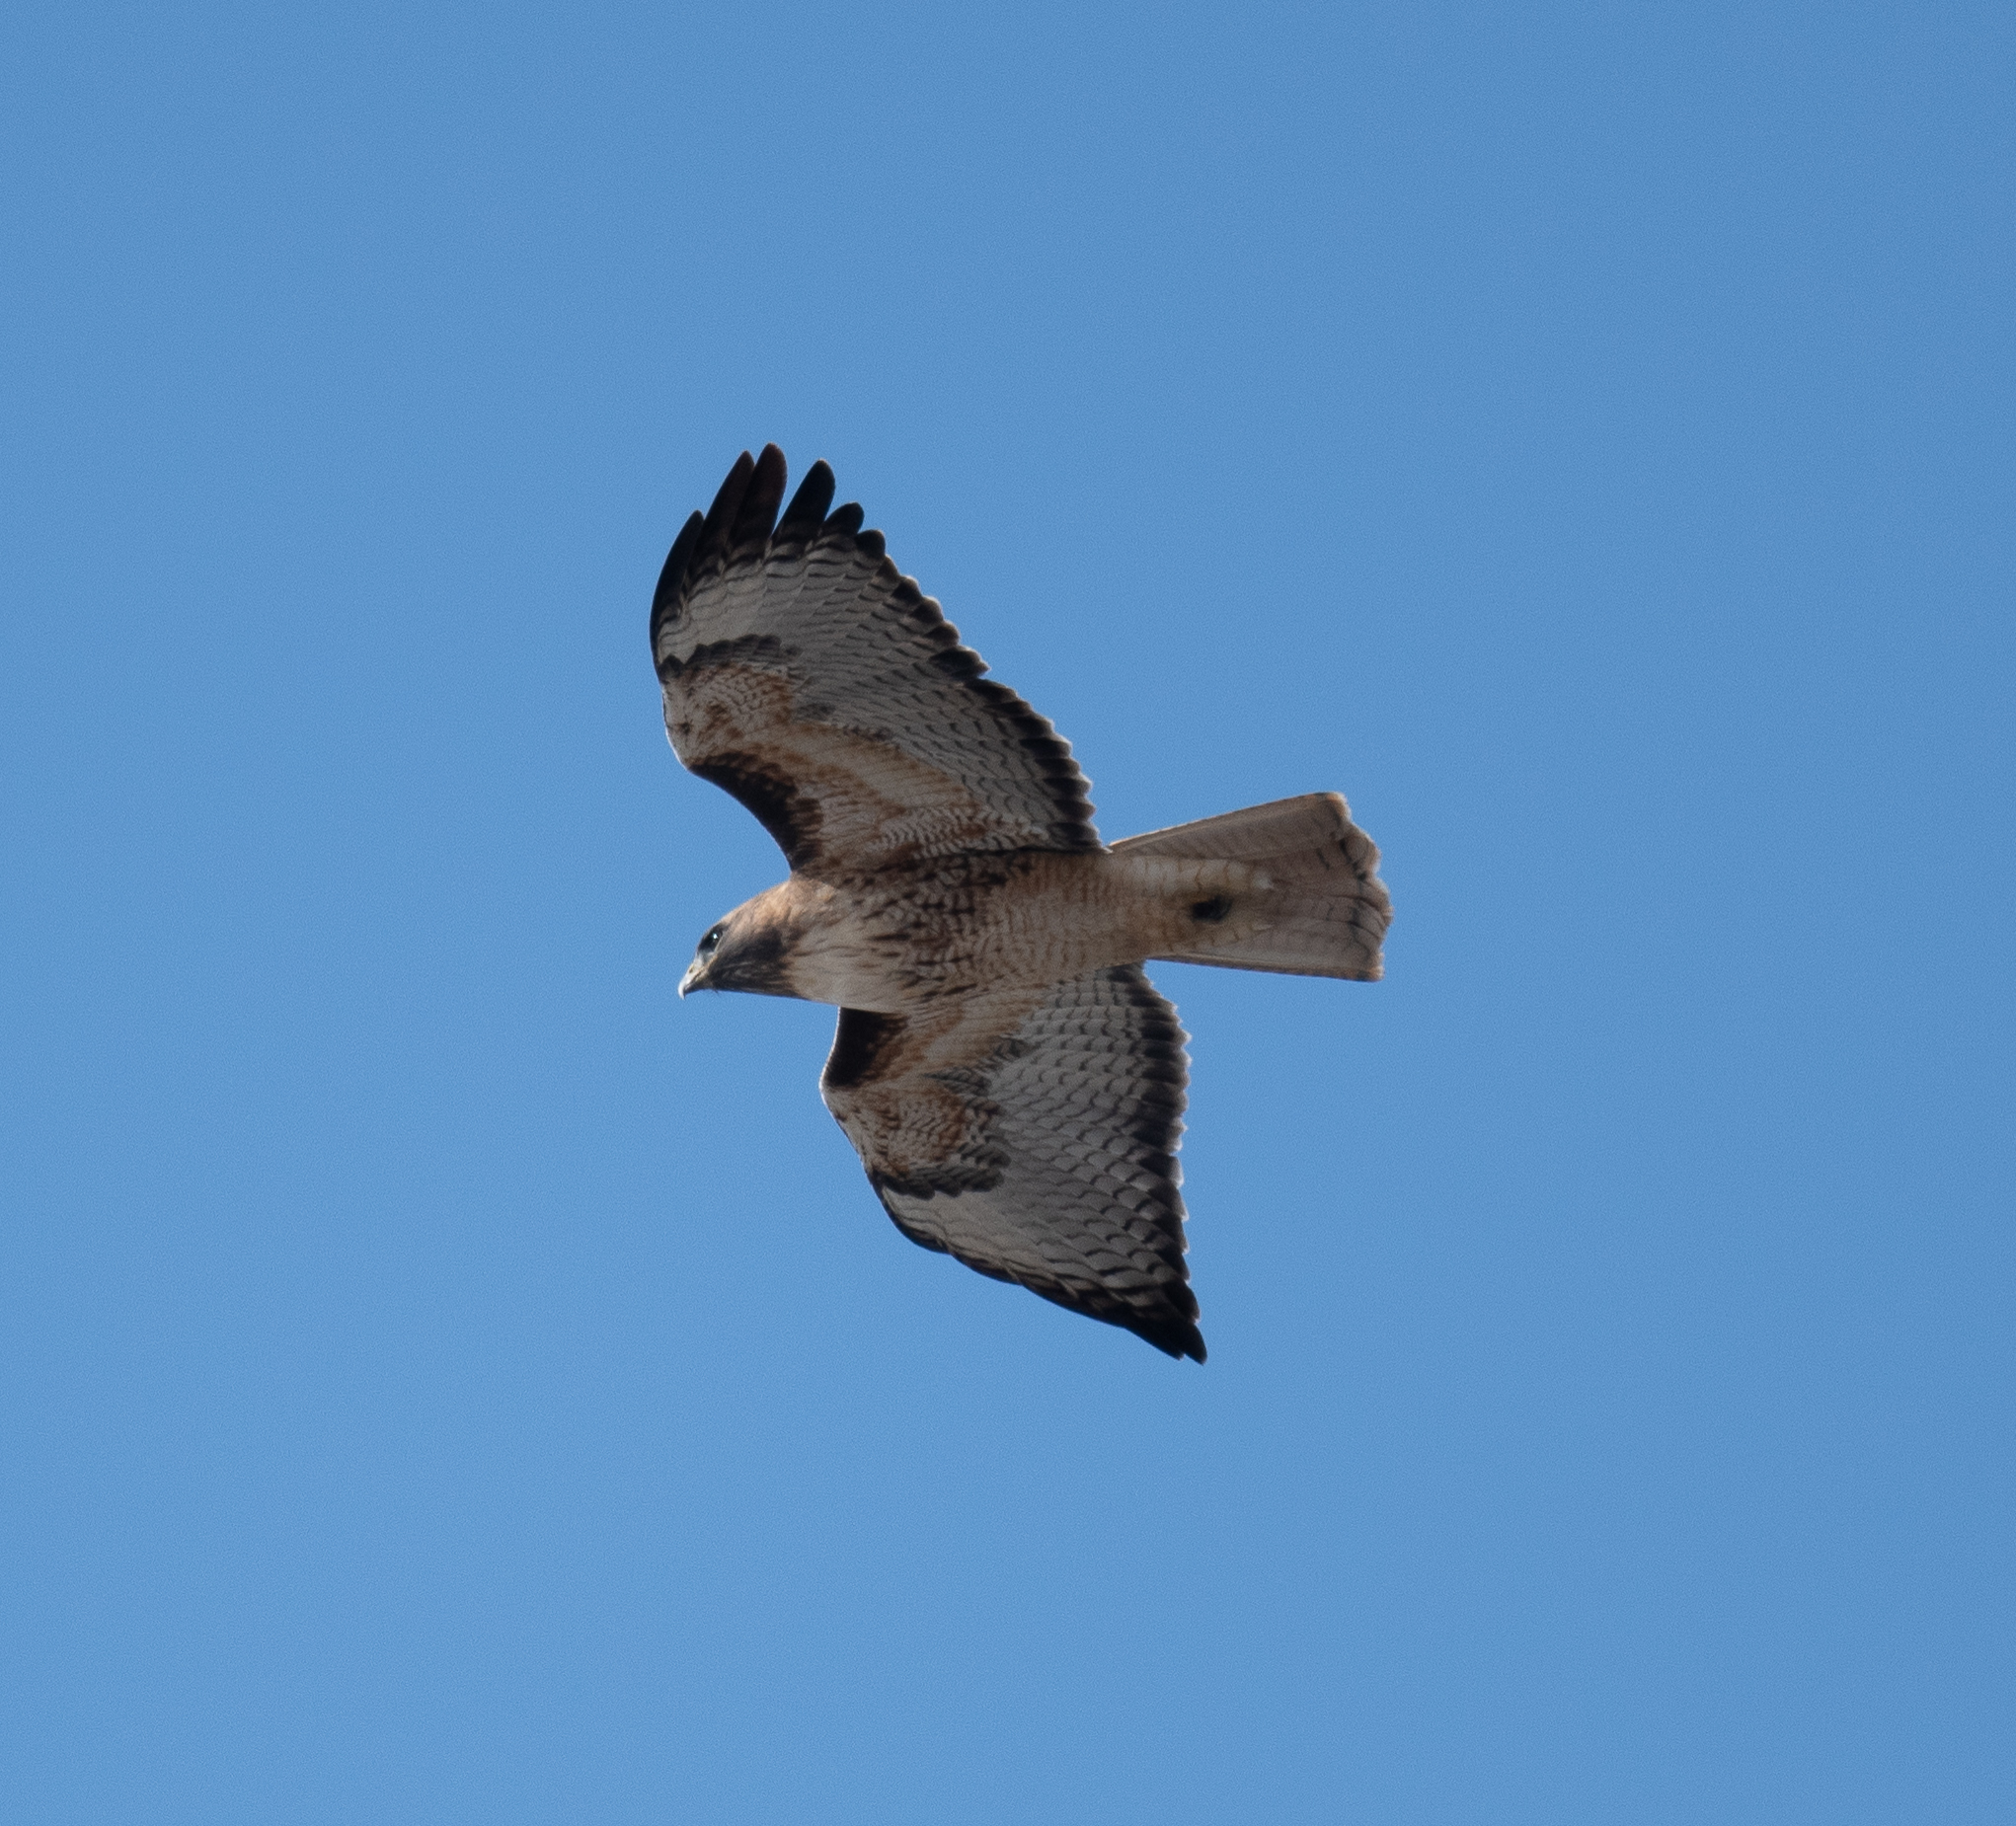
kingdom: Animalia
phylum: Chordata
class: Aves
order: Accipitriformes
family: Accipitridae
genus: Buteo
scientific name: Buteo jamaicensis
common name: Red-tailed hawk
